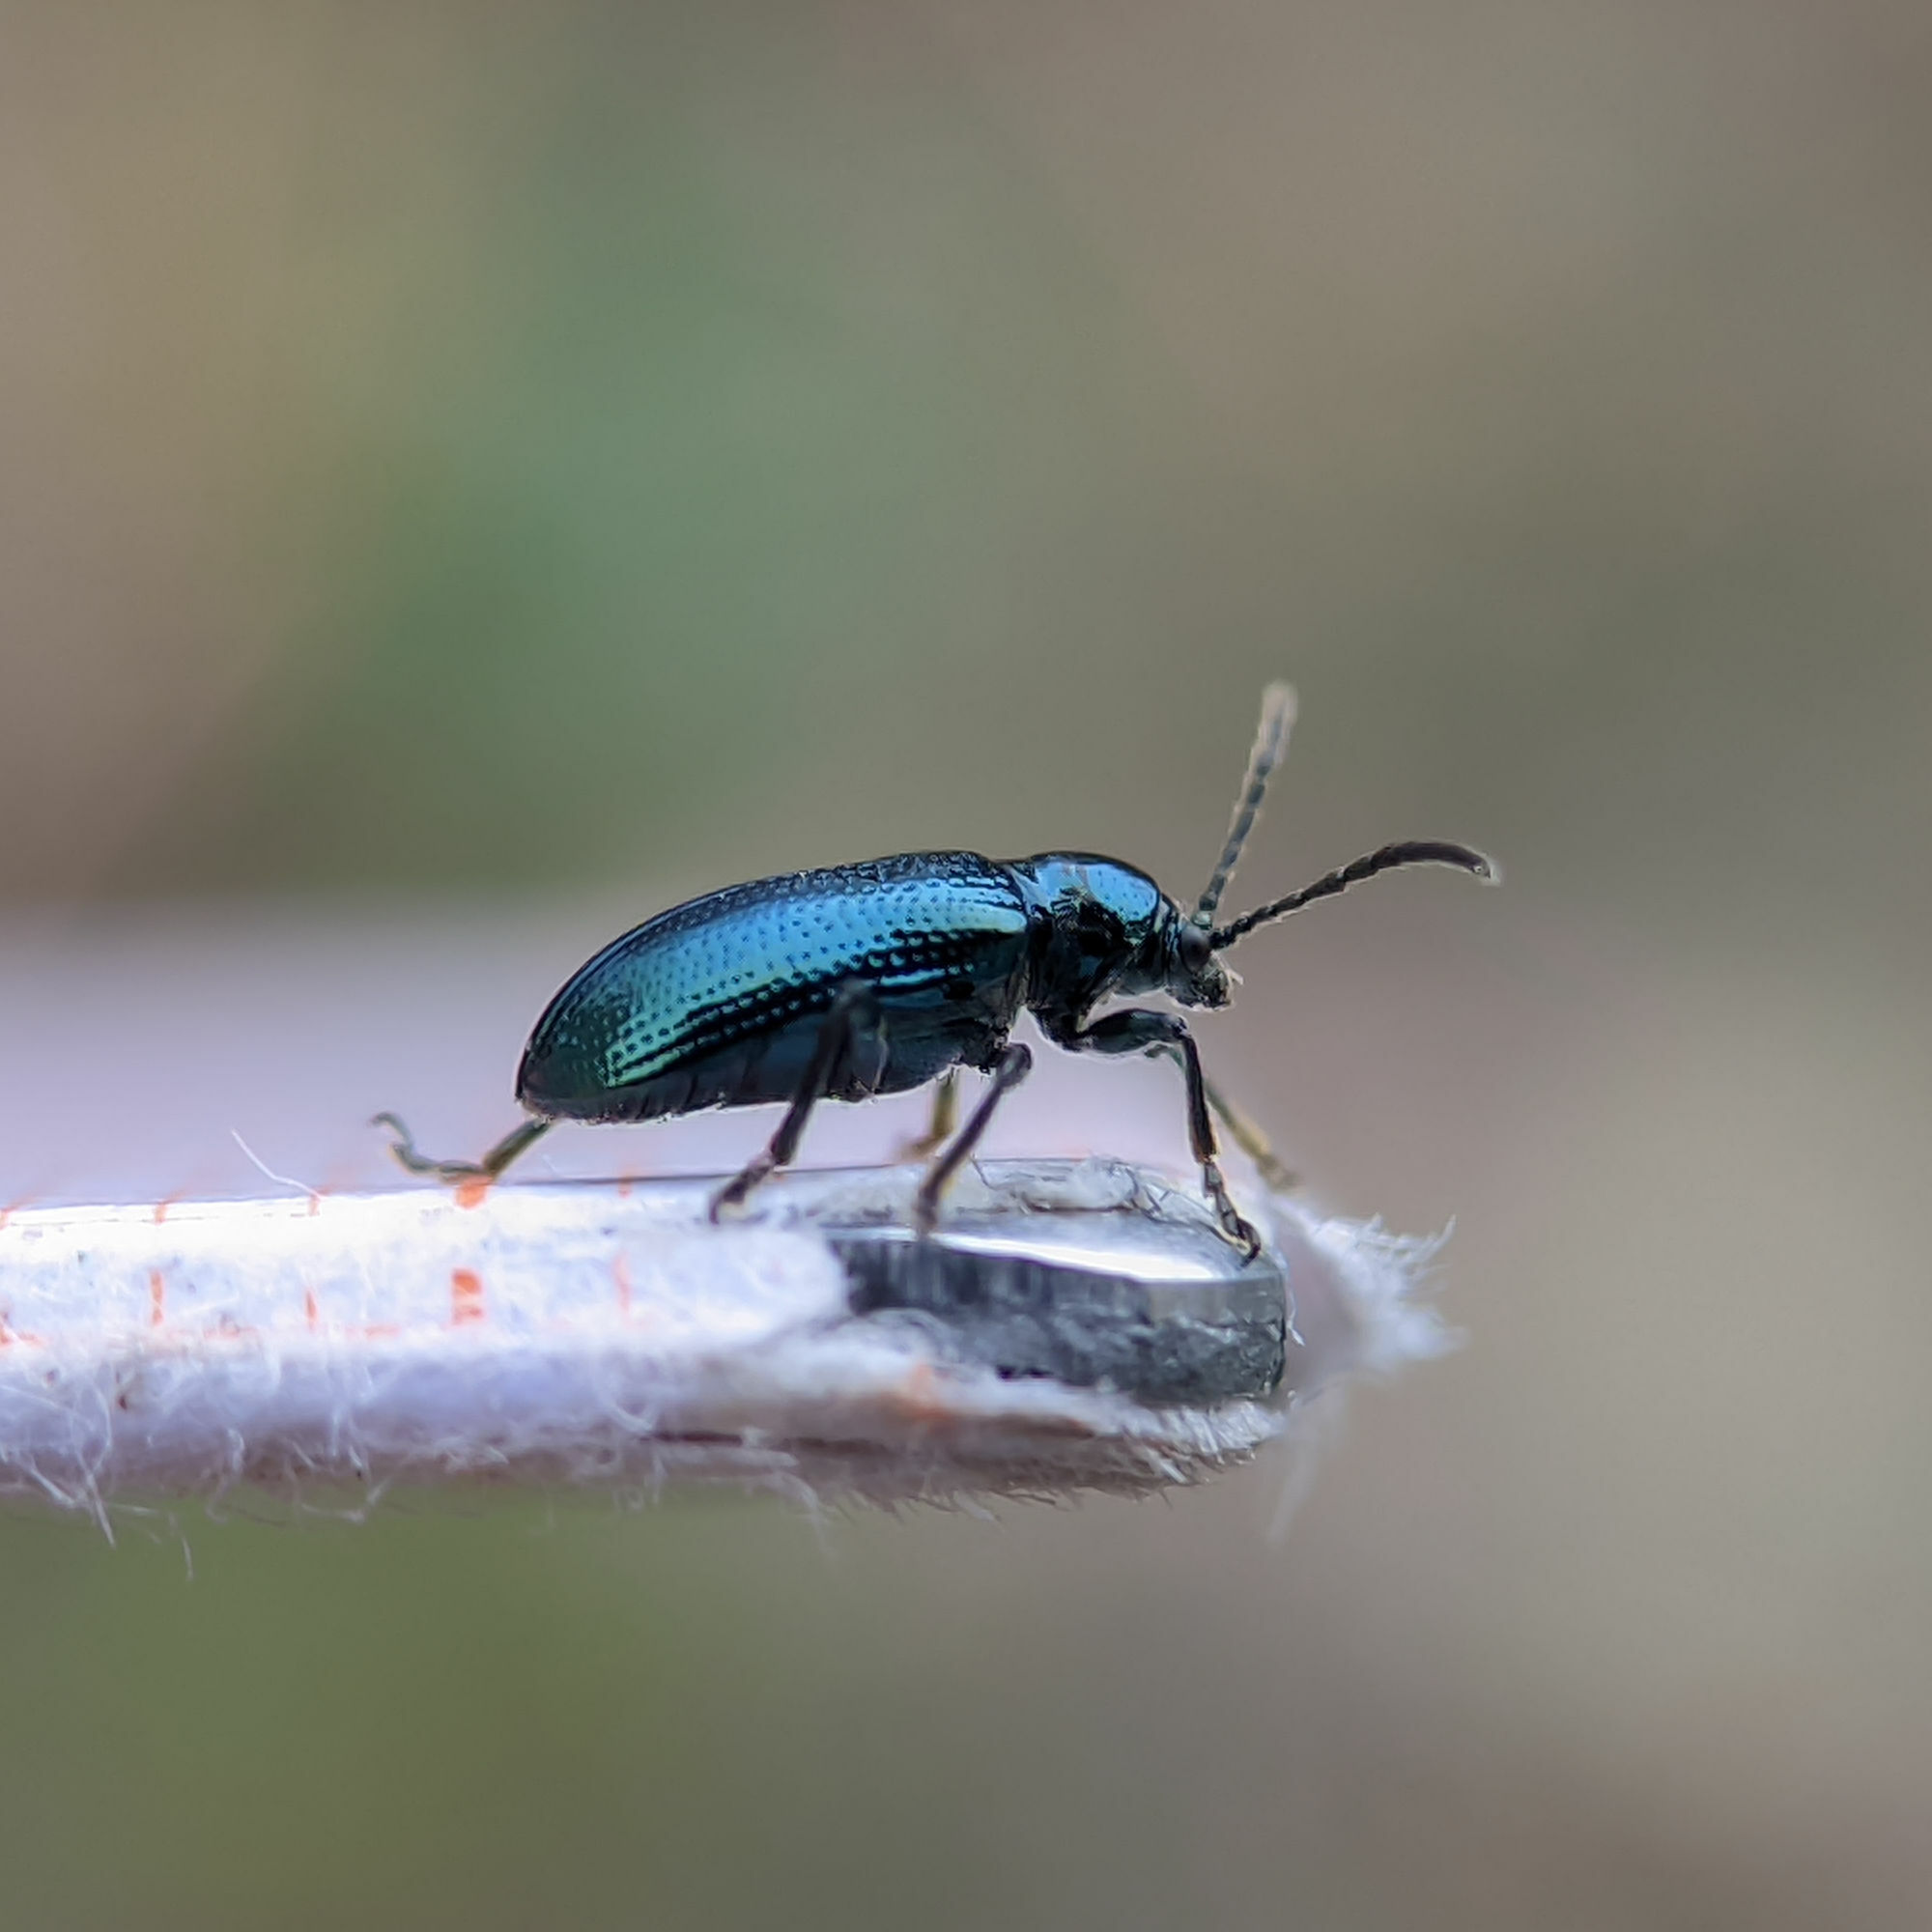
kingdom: Animalia
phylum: Arthropoda
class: Insecta
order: Coleoptera
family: Chrysomelidae
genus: Oulema
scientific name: Oulema gallaeciana
